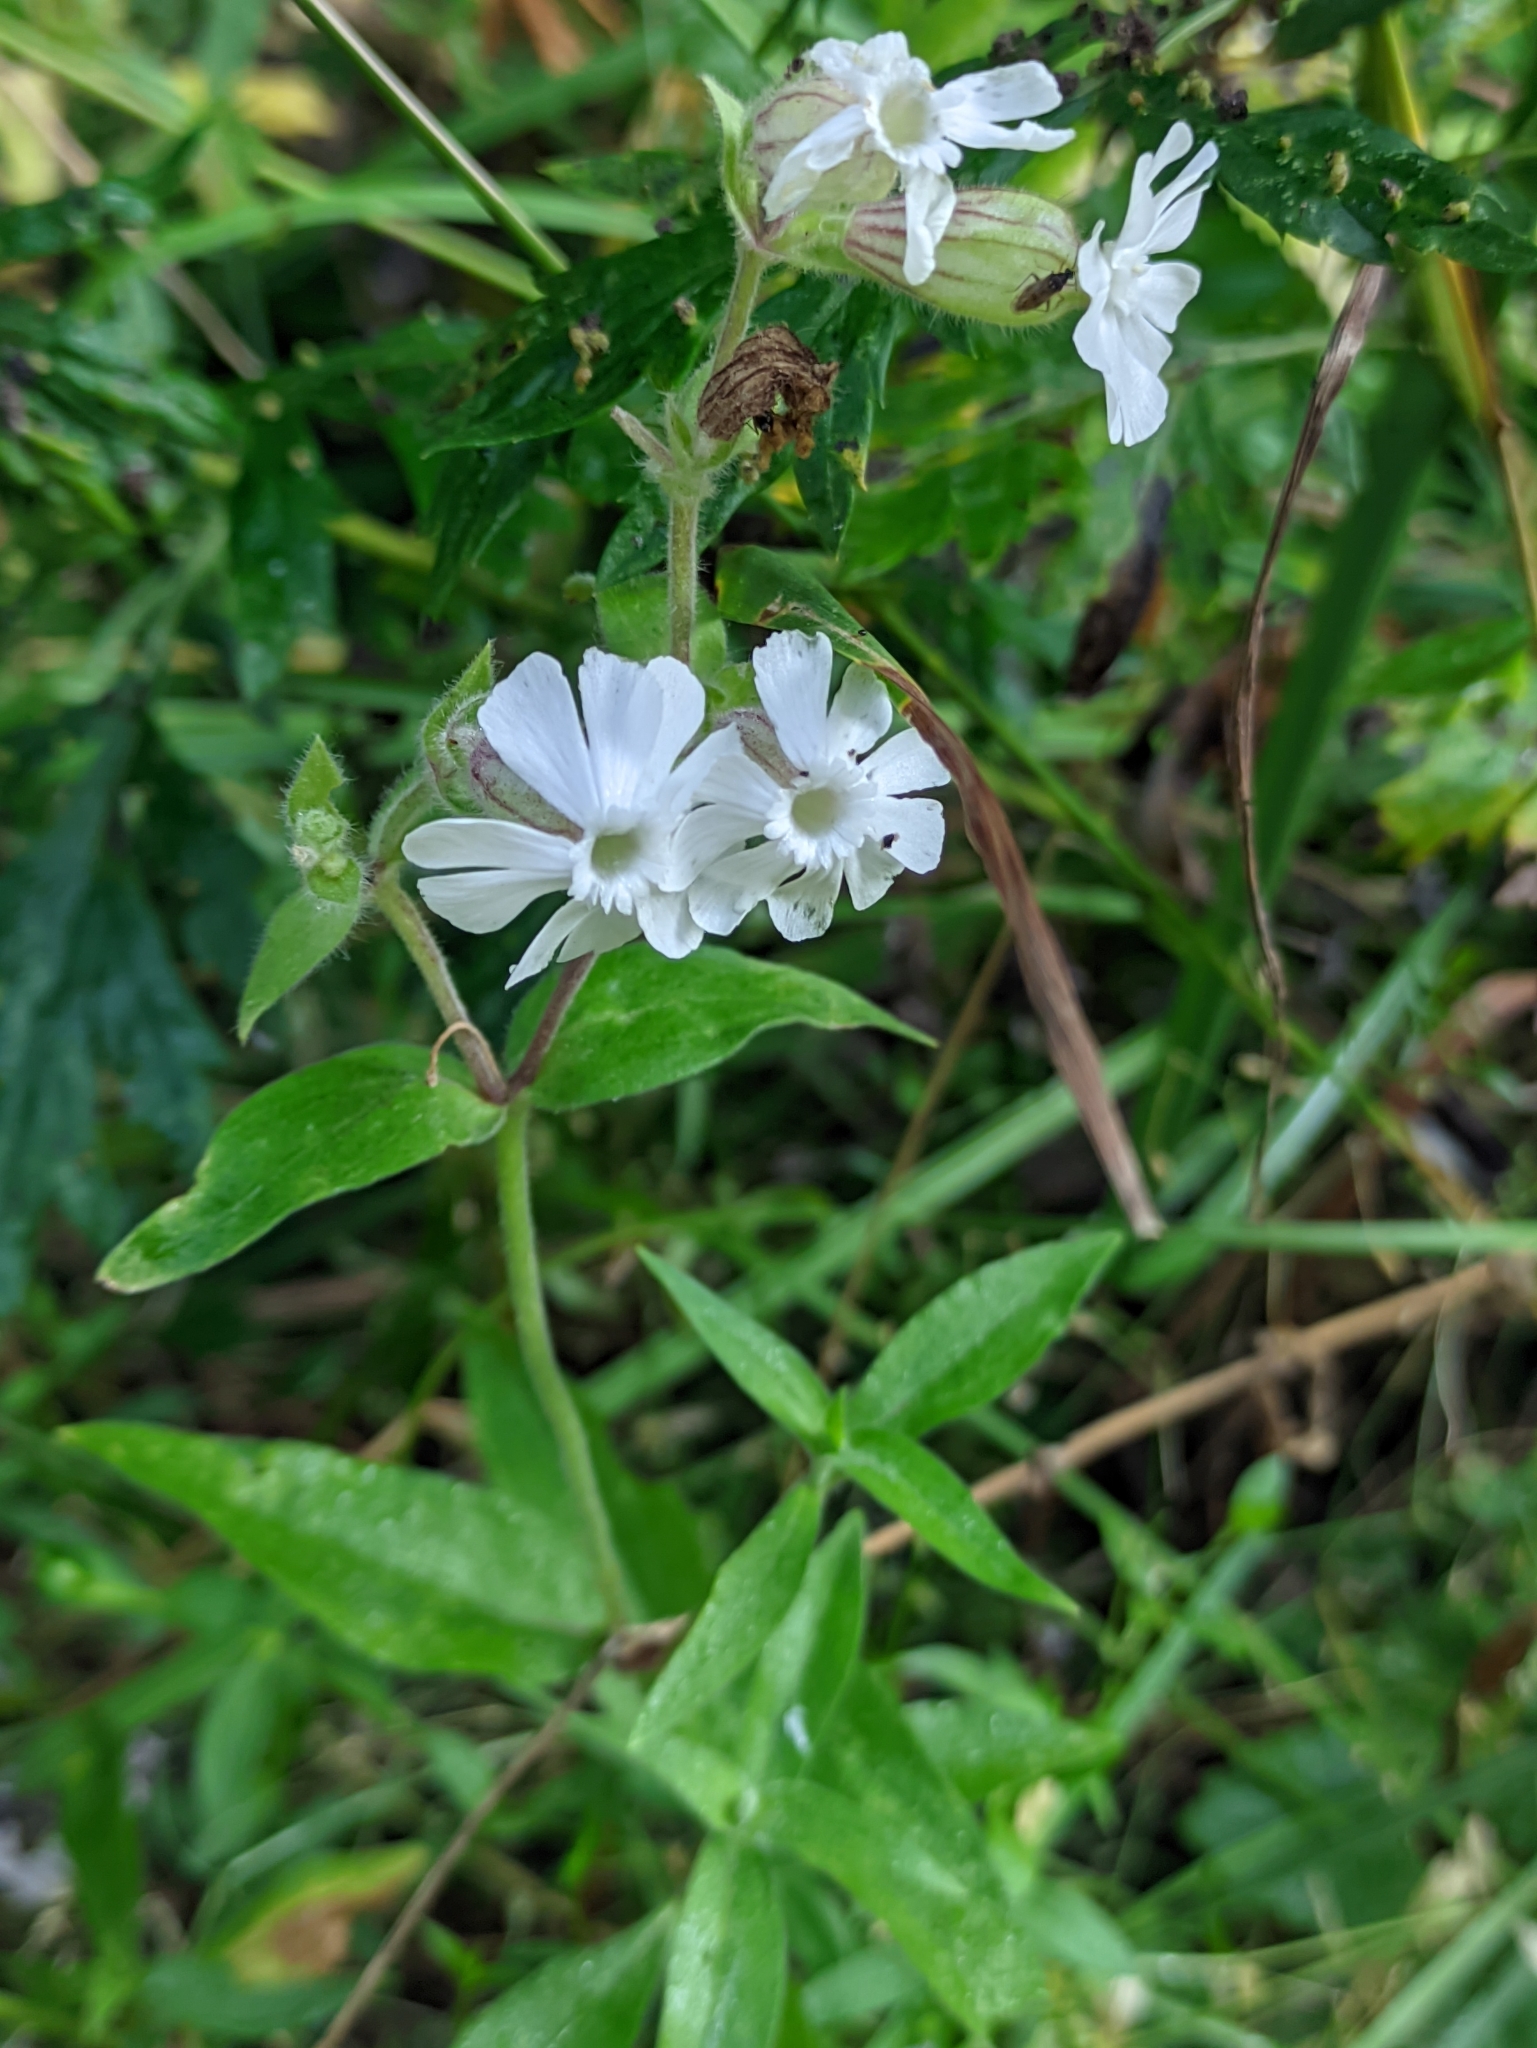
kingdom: Plantae
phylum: Tracheophyta
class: Magnoliopsida
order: Caryophyllales
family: Caryophyllaceae
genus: Silene
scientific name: Silene latifolia
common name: White campion
